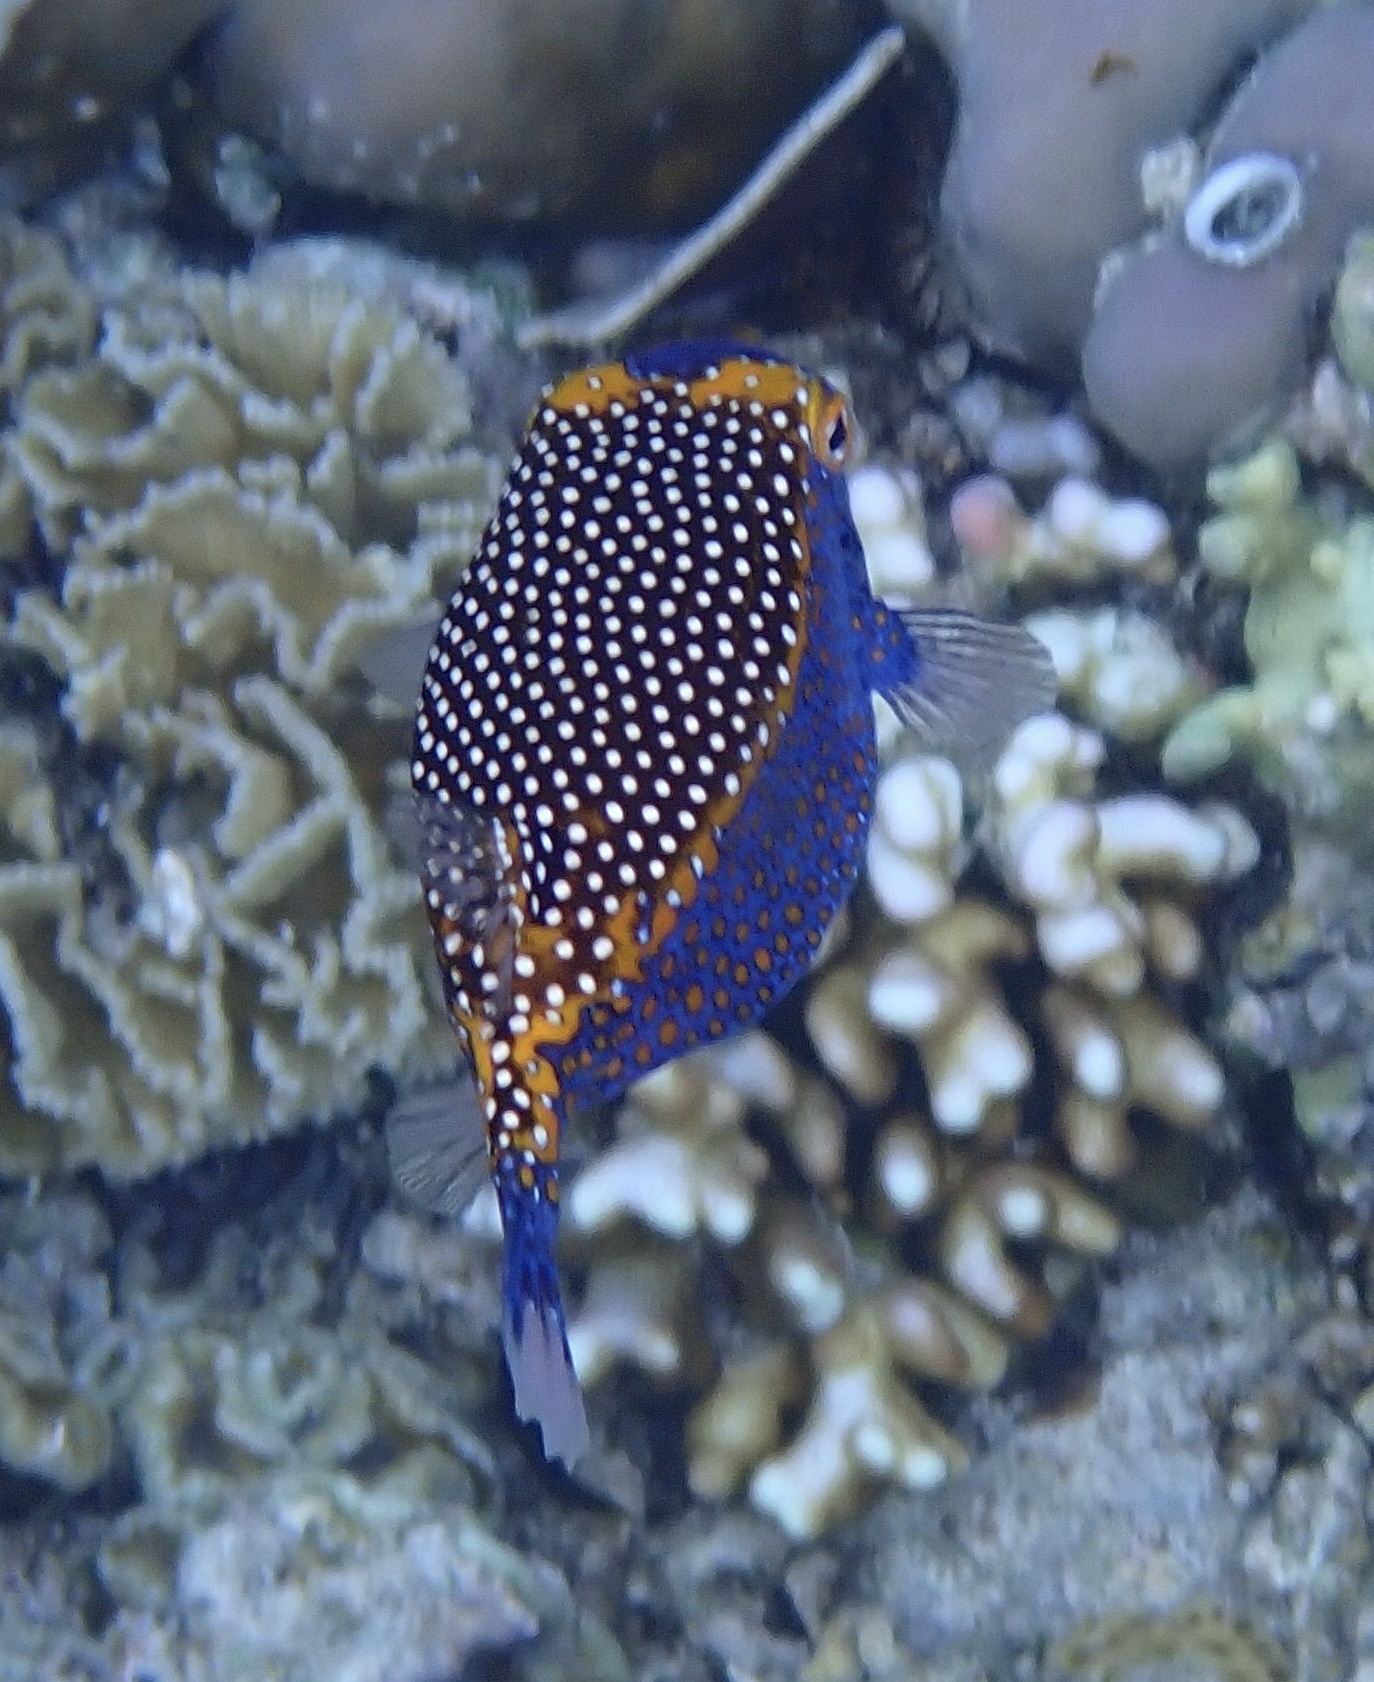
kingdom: Animalia
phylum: Chordata
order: Tetraodontiformes
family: Ostraciidae
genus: Ostracion
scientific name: Ostracion meleagris
